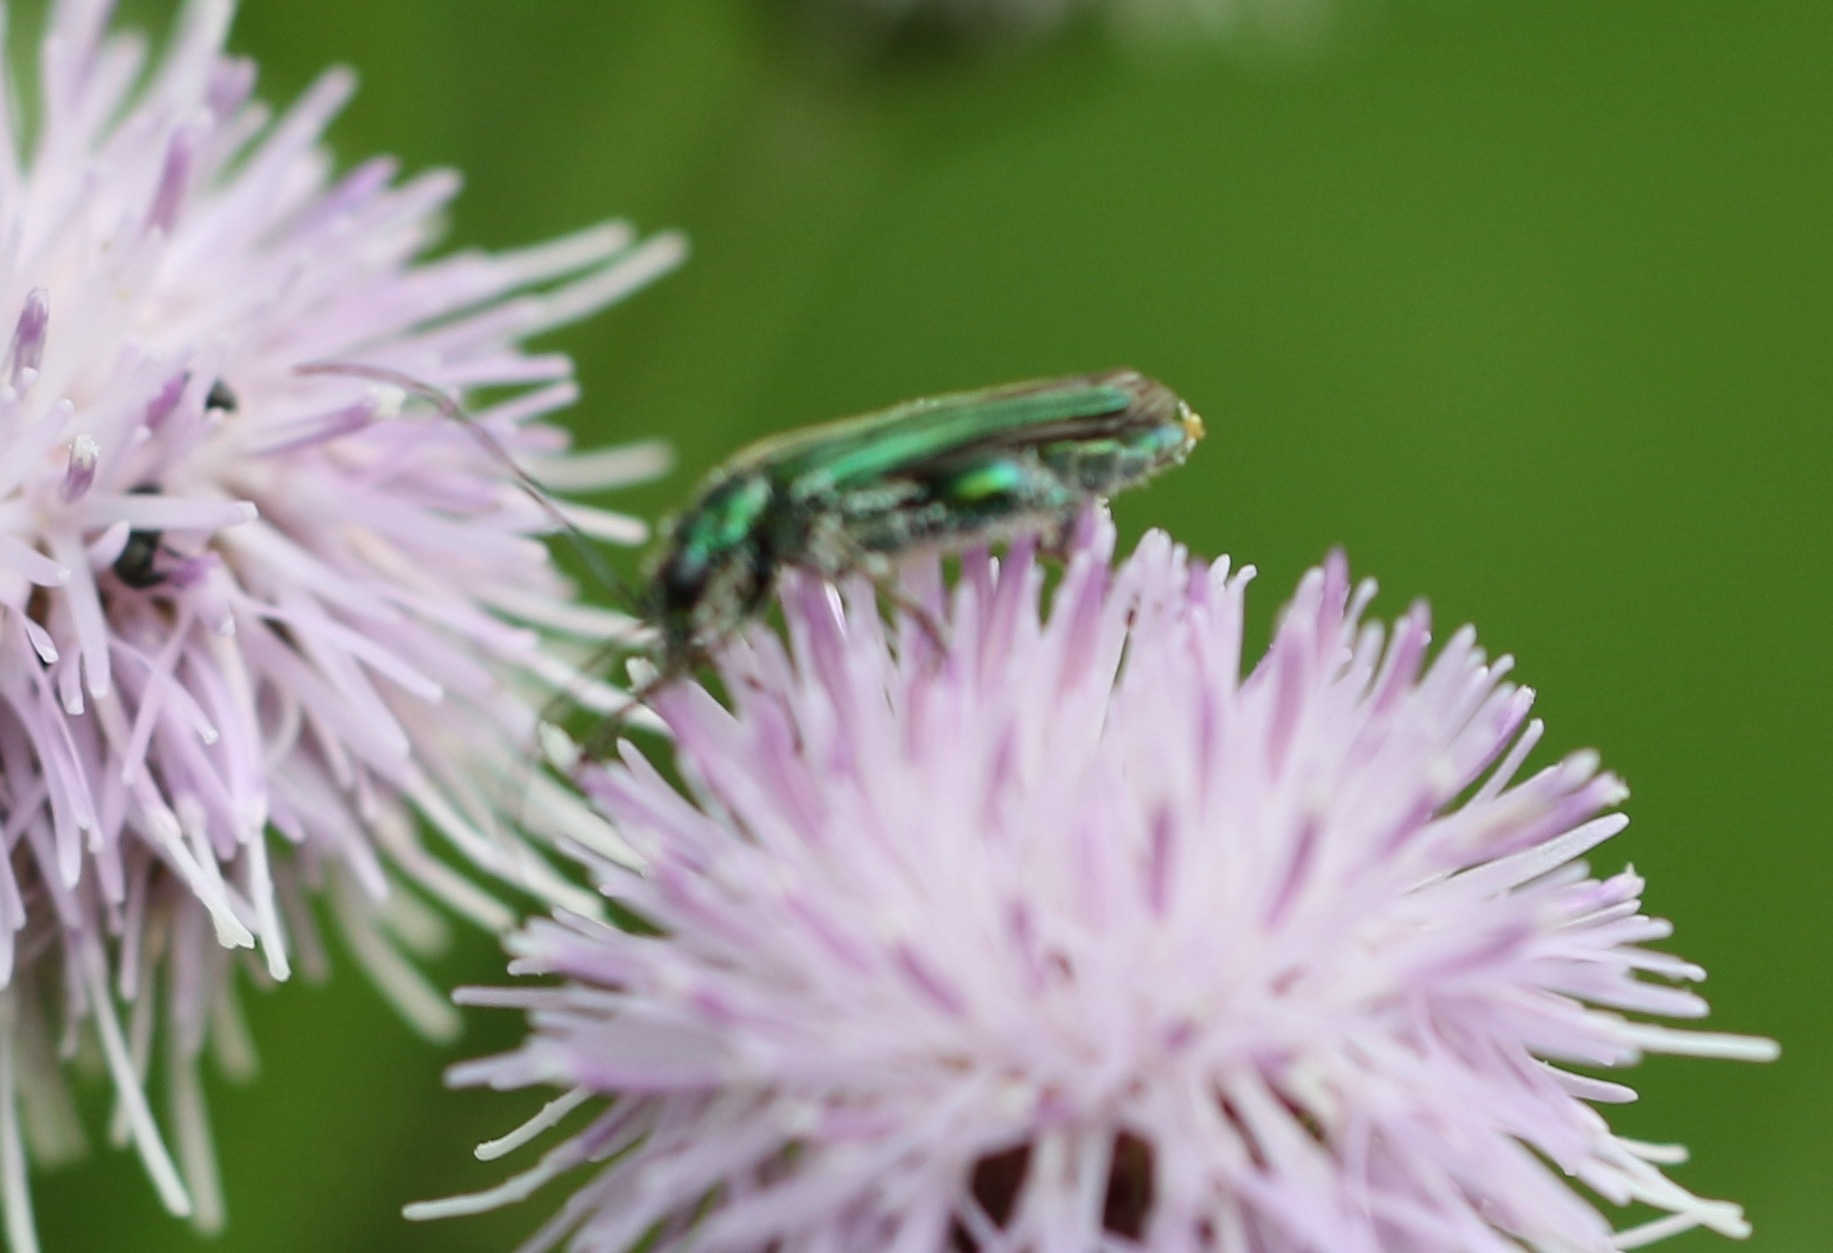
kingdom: Animalia
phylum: Arthropoda
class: Insecta
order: Coleoptera
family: Oedemeridae
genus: Oedemera
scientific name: Oedemera nobilis
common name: Swollen-thighed beetle
